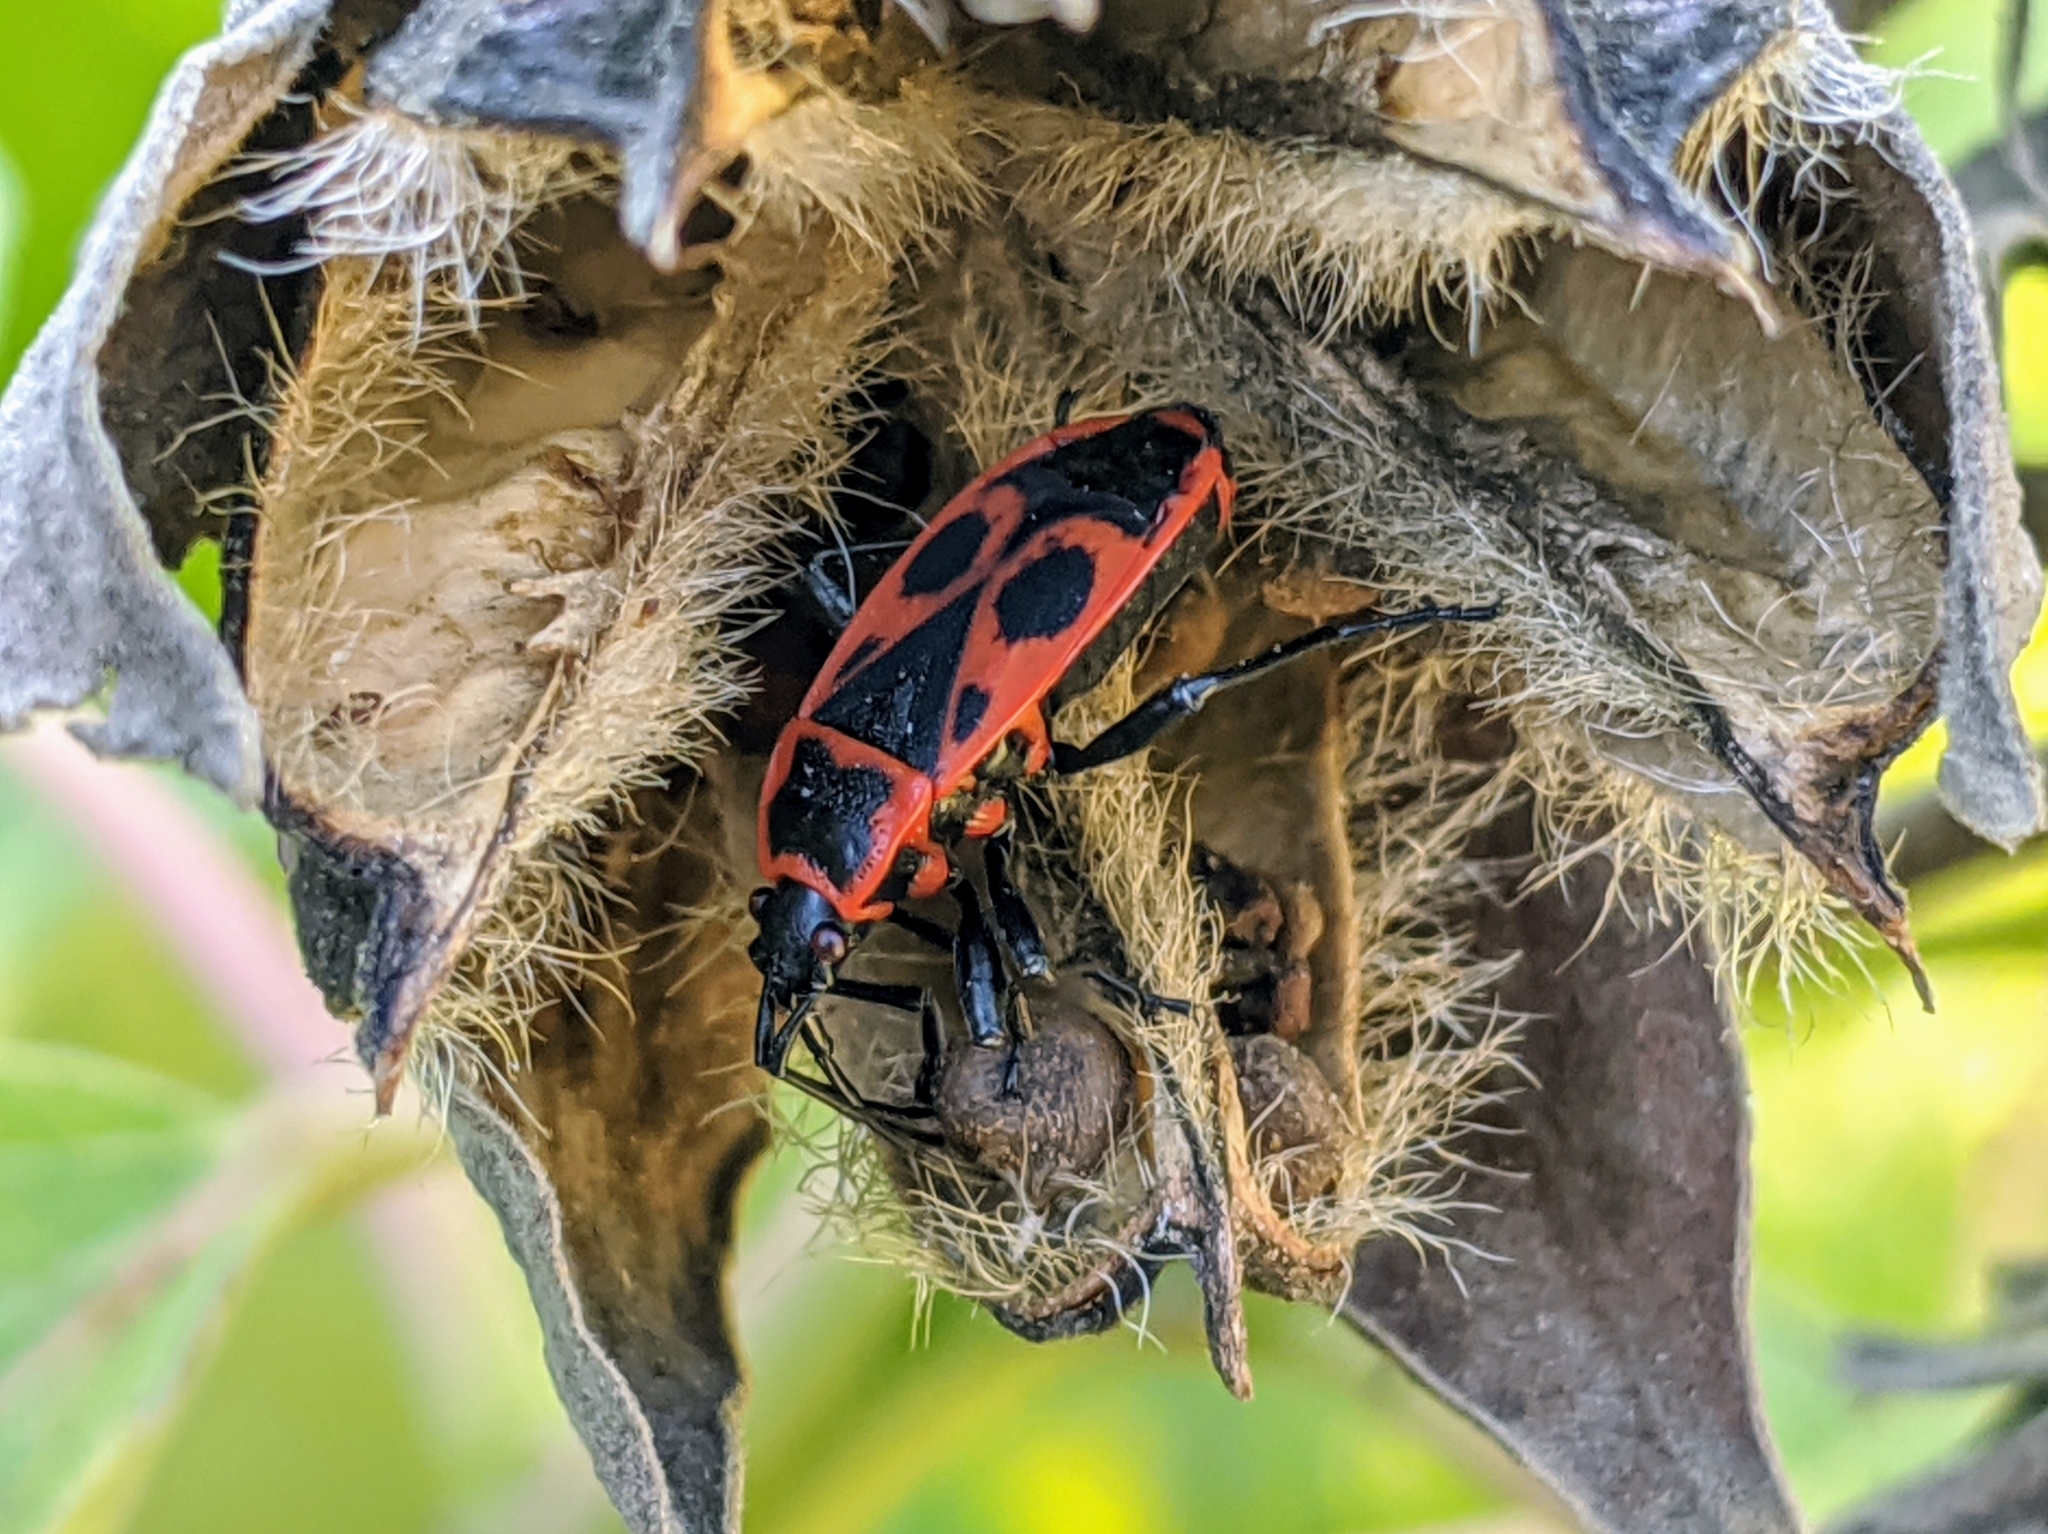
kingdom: Animalia
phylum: Arthropoda
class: Insecta
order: Hemiptera
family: Pyrrhocoridae
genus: Pyrrhocoris
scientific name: Pyrrhocoris apterus
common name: Firebug
